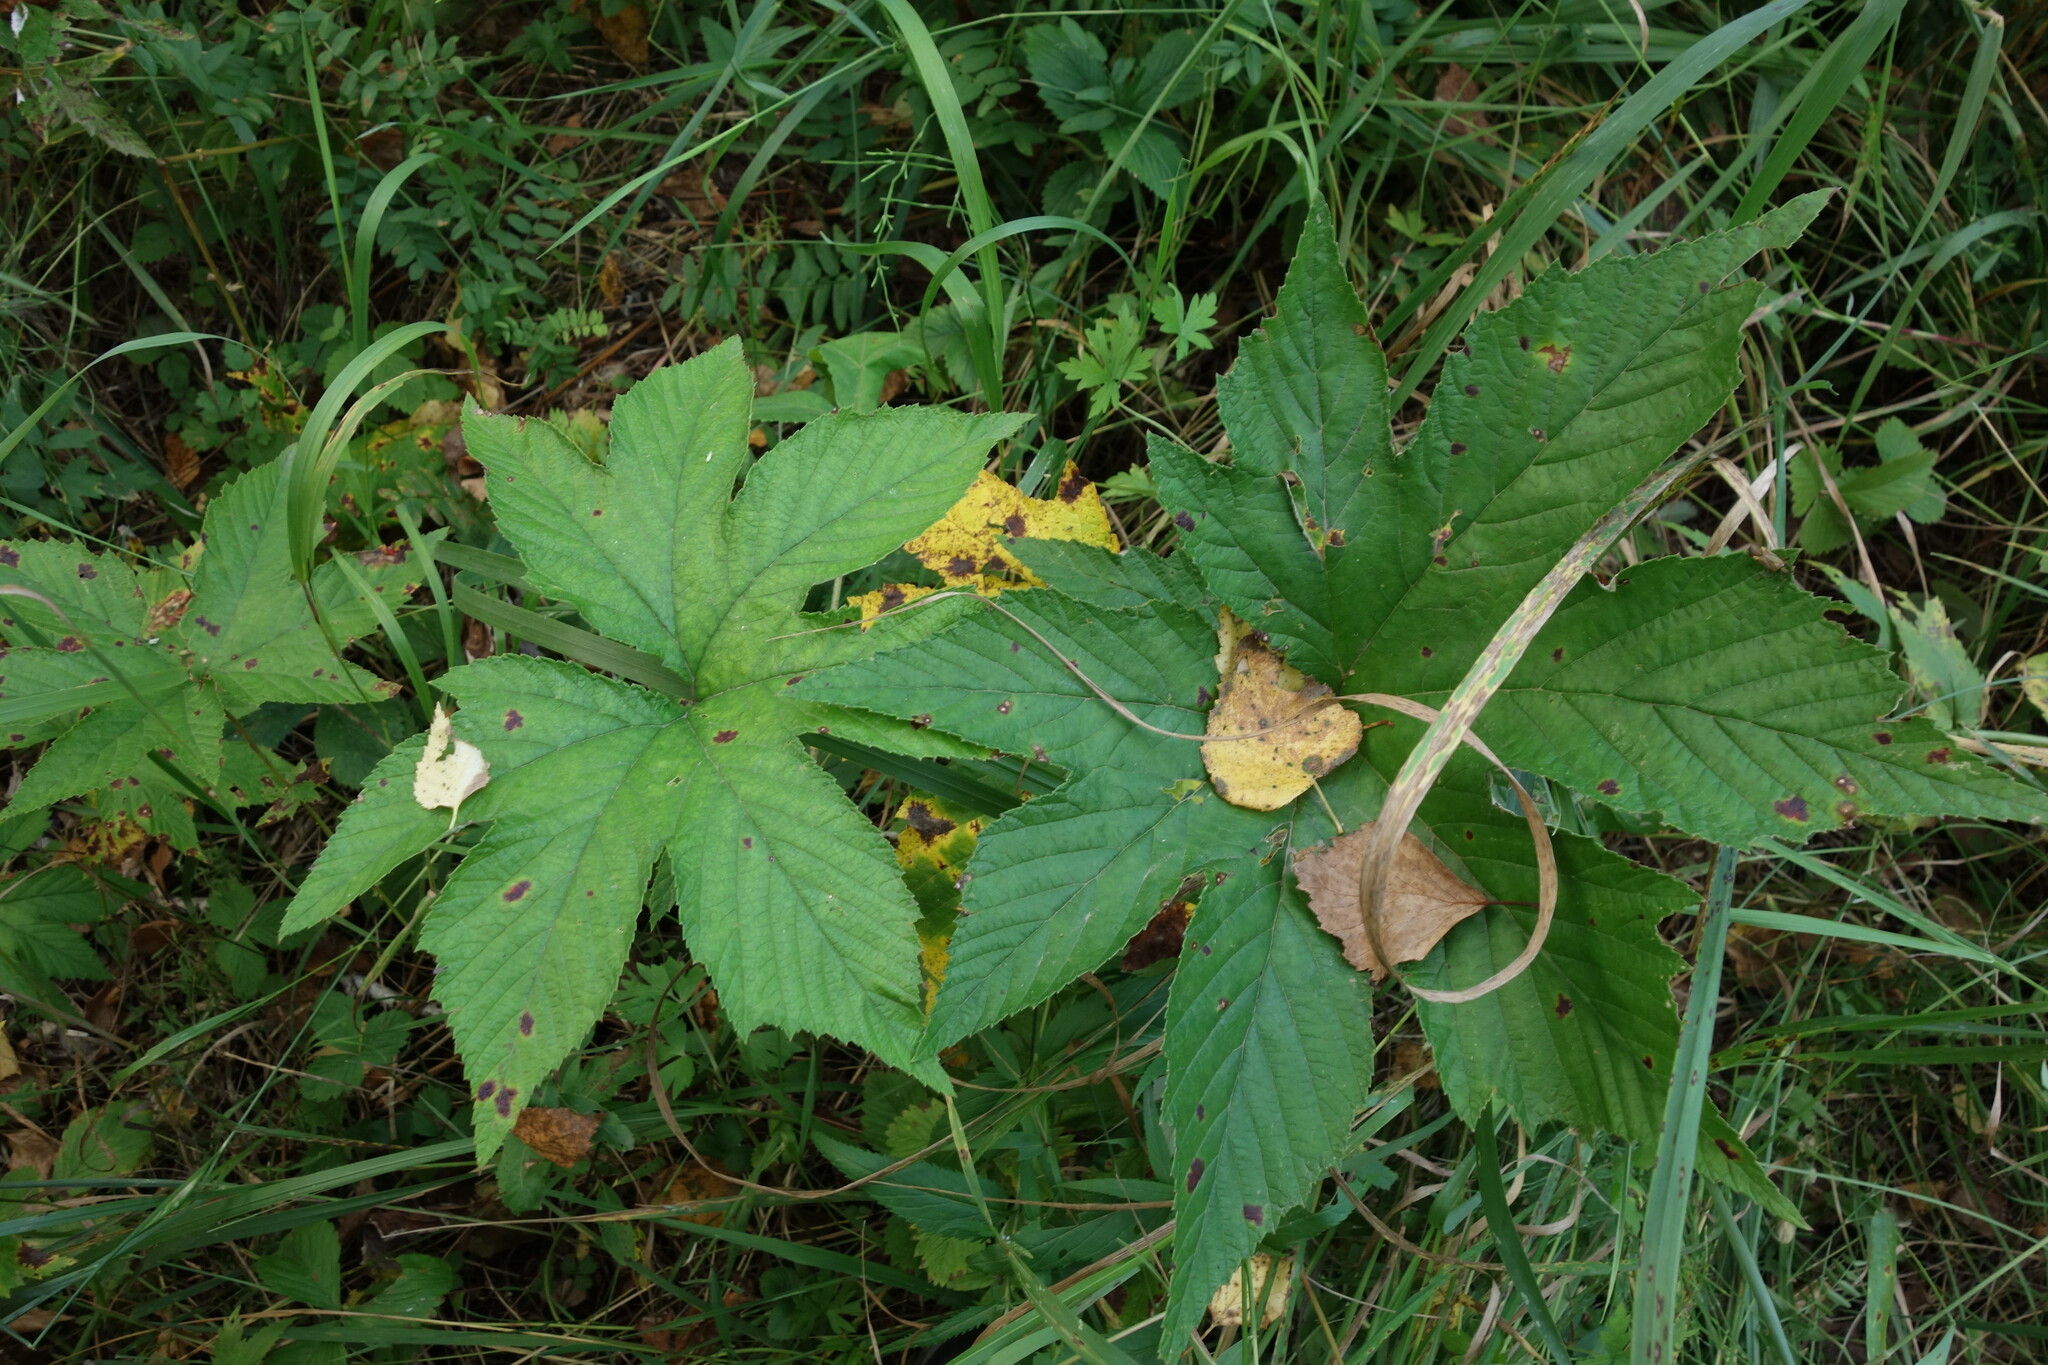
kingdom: Plantae
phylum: Tracheophyta
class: Magnoliopsida
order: Rosales
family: Rosaceae
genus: Filipendula
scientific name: Filipendula digitata
